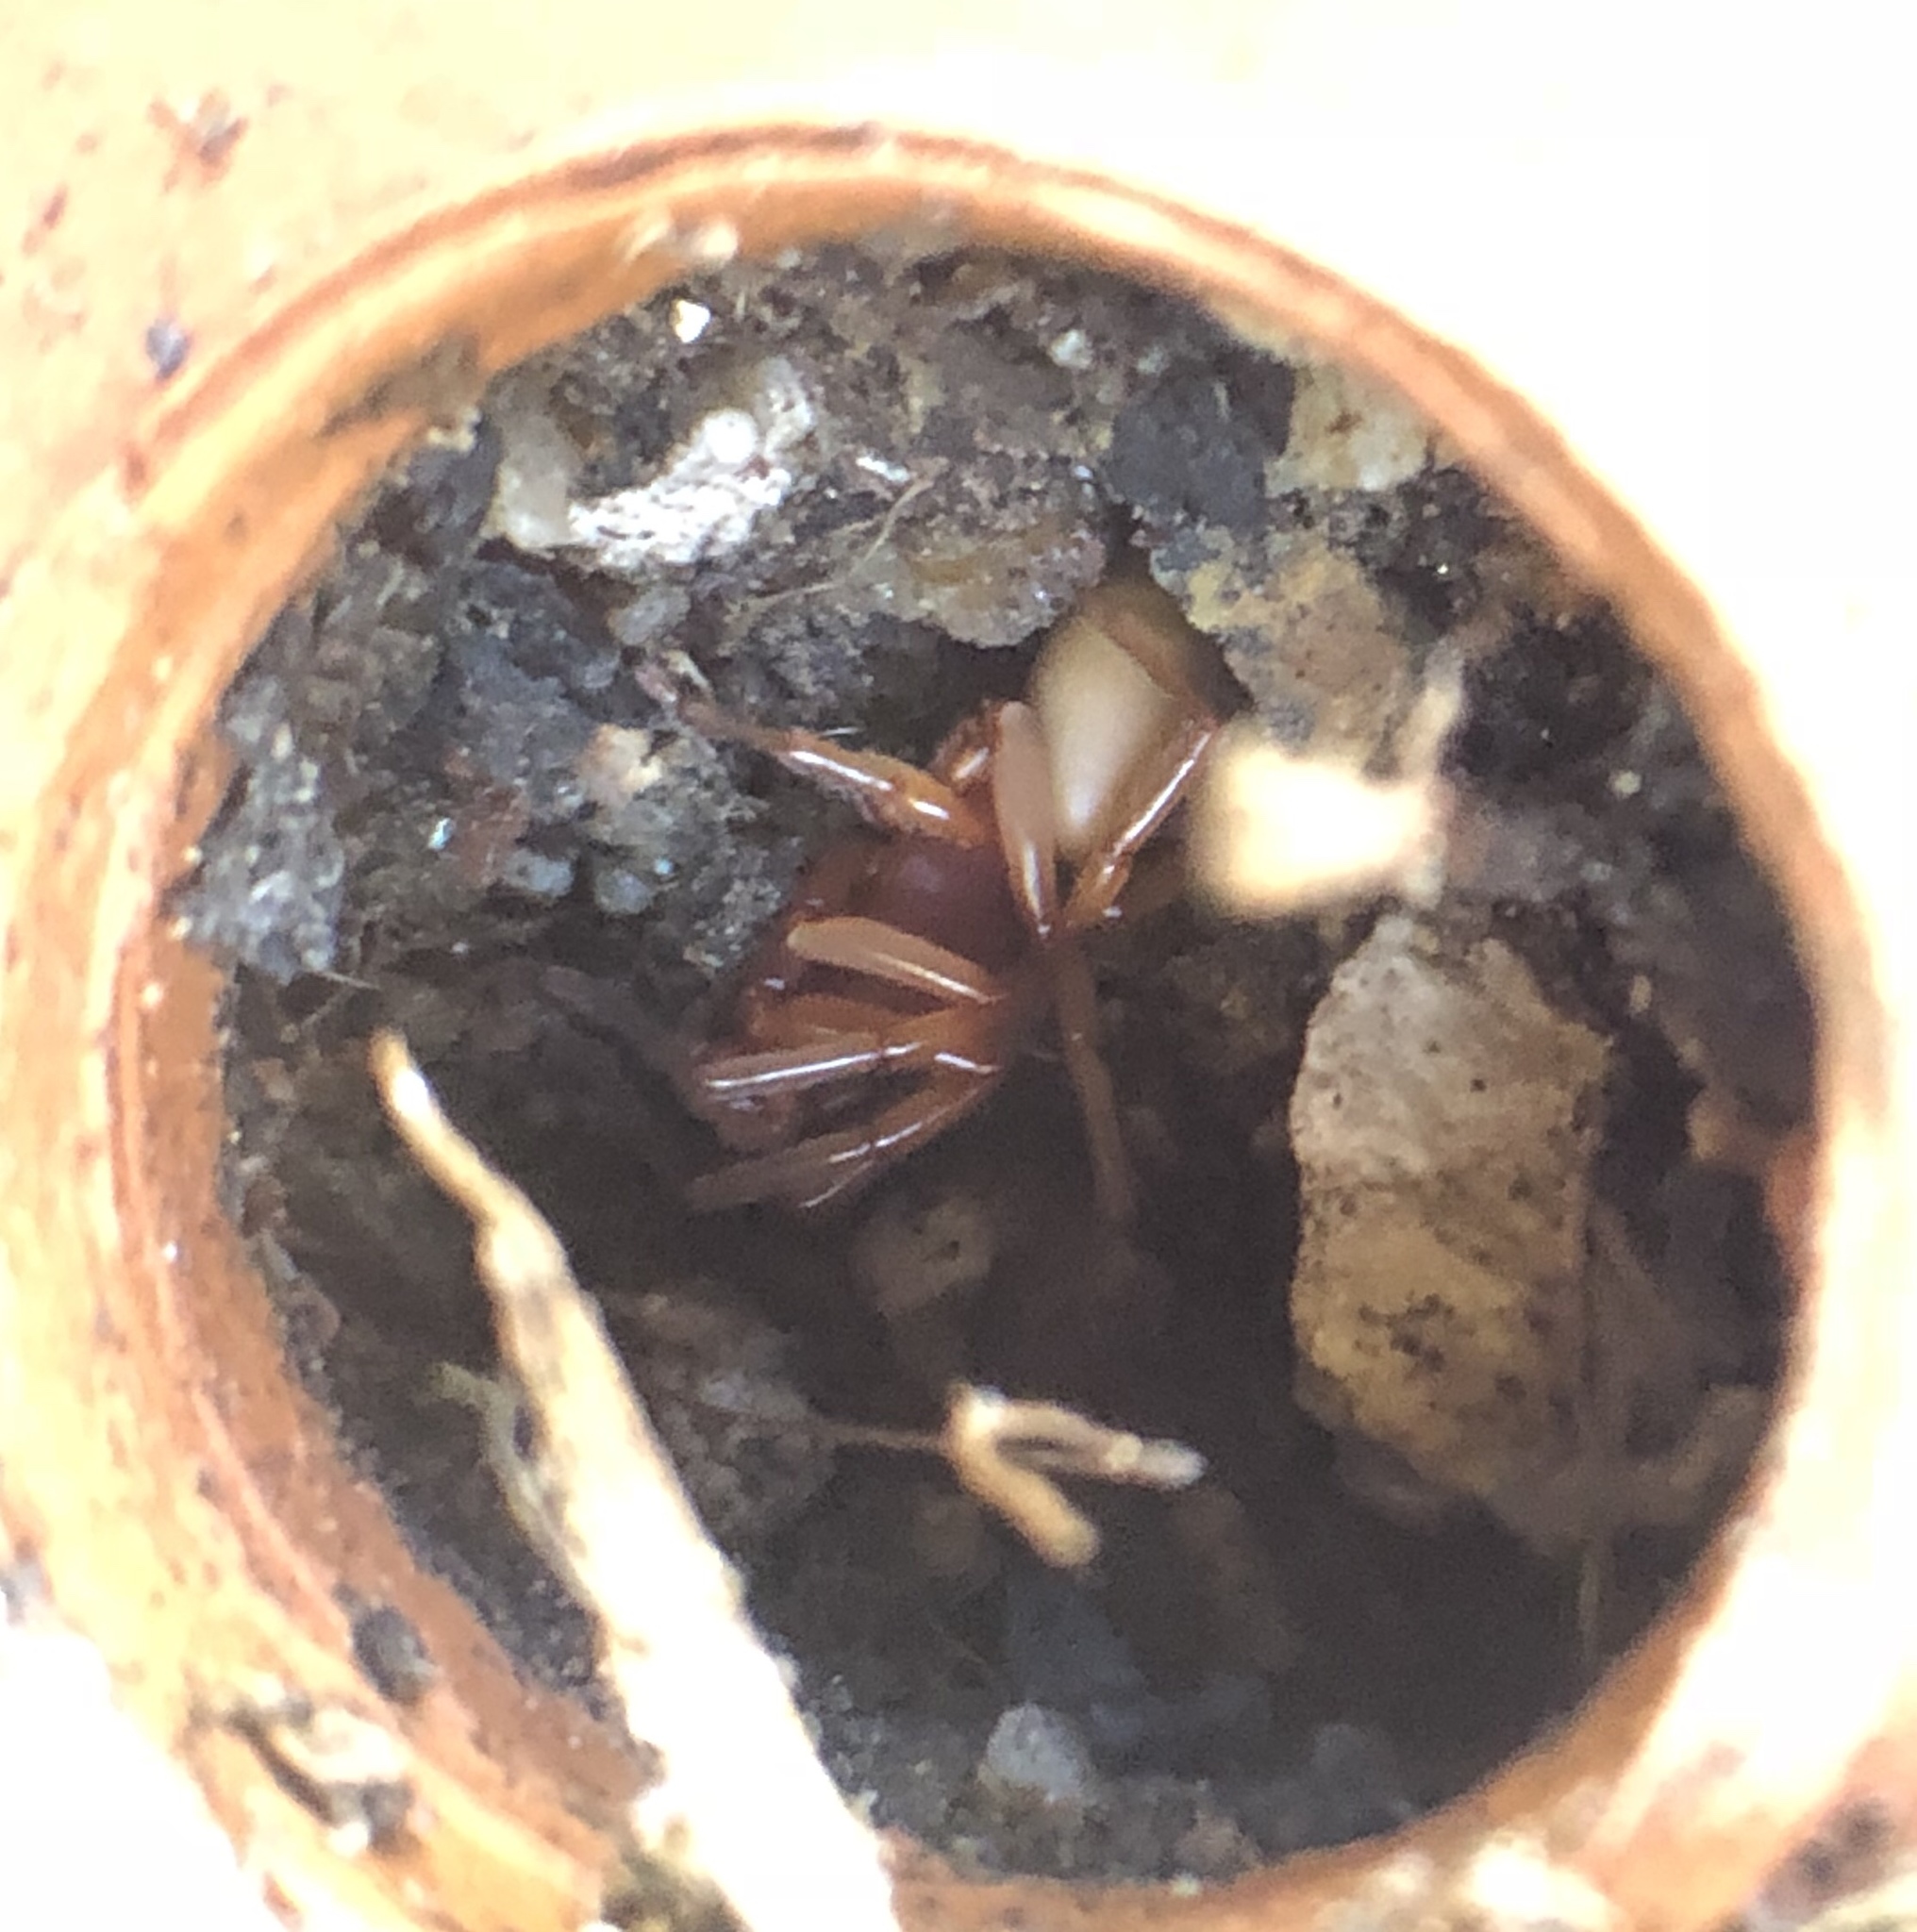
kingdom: Animalia
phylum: Arthropoda
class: Arachnida
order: Araneae
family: Dysderidae
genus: Dysdera
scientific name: Dysdera crocata
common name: Woodlouse spider
